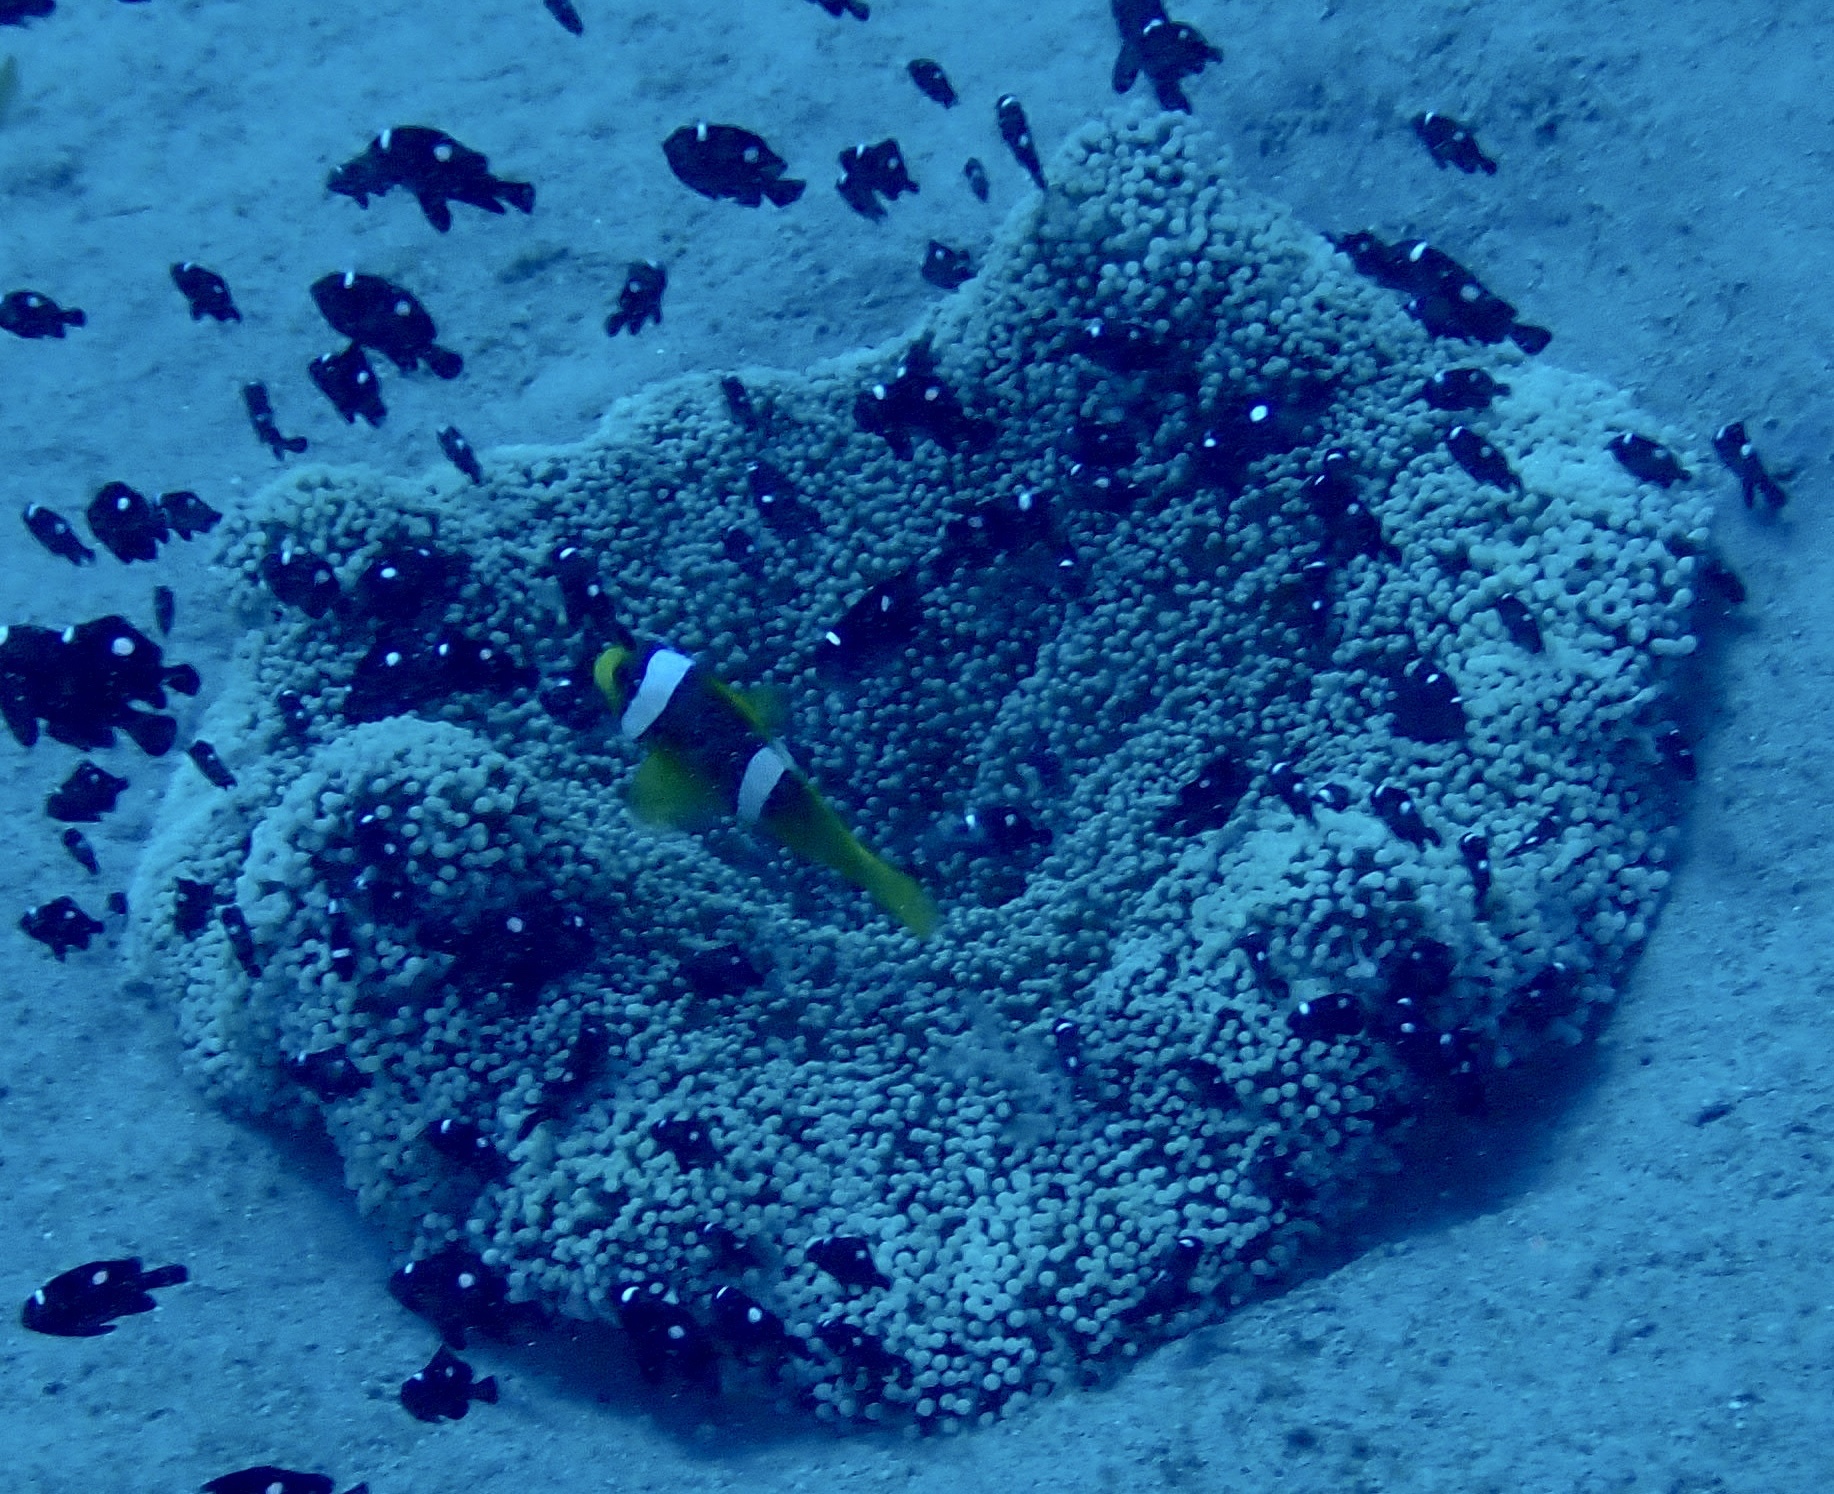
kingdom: Animalia
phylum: Chordata
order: Perciformes
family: Pomacentridae
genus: Dascyllus
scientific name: Dascyllus trimaculatus
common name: Threespot dascyllus
